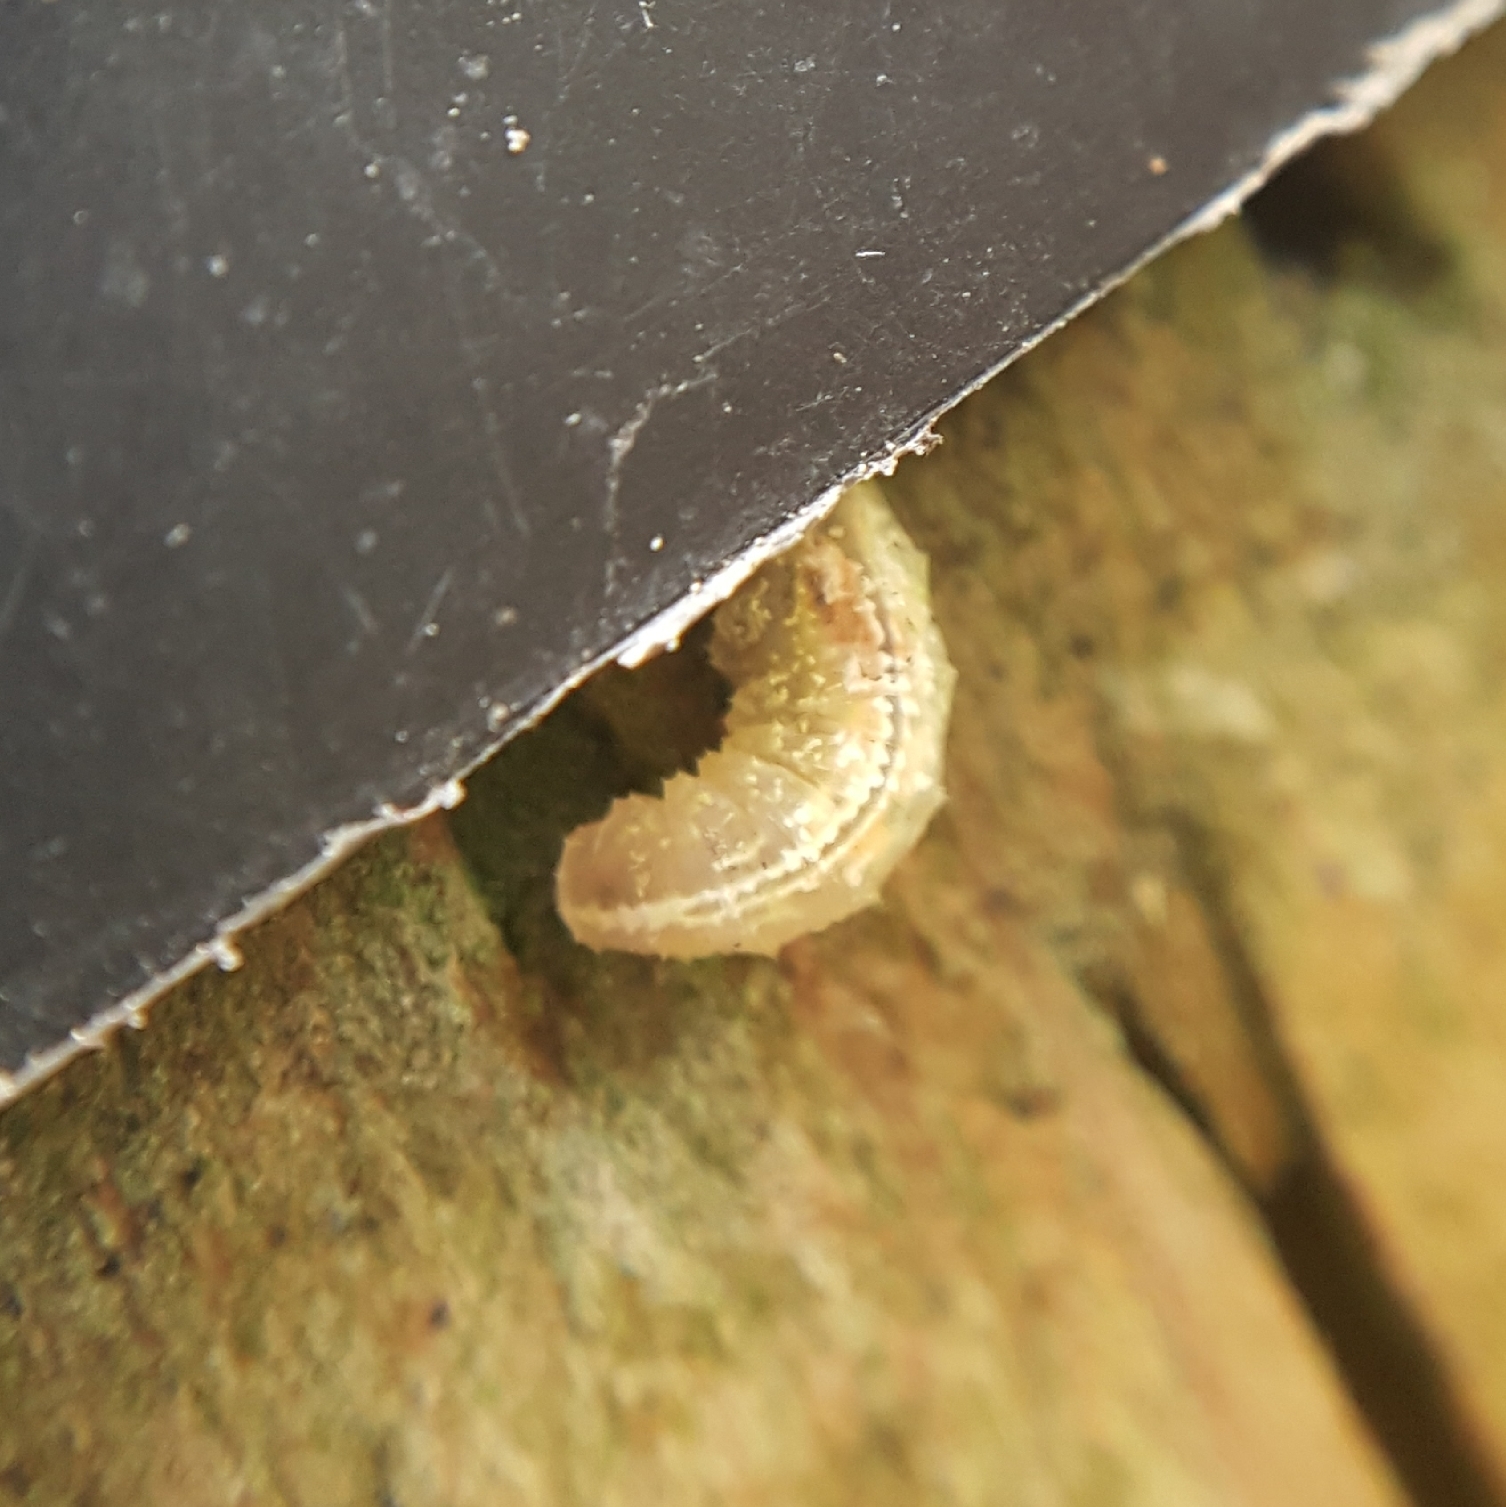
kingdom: Animalia
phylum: Arthropoda
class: Insecta
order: Diptera
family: Syrphidae
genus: Syrphus
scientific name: Syrphus
